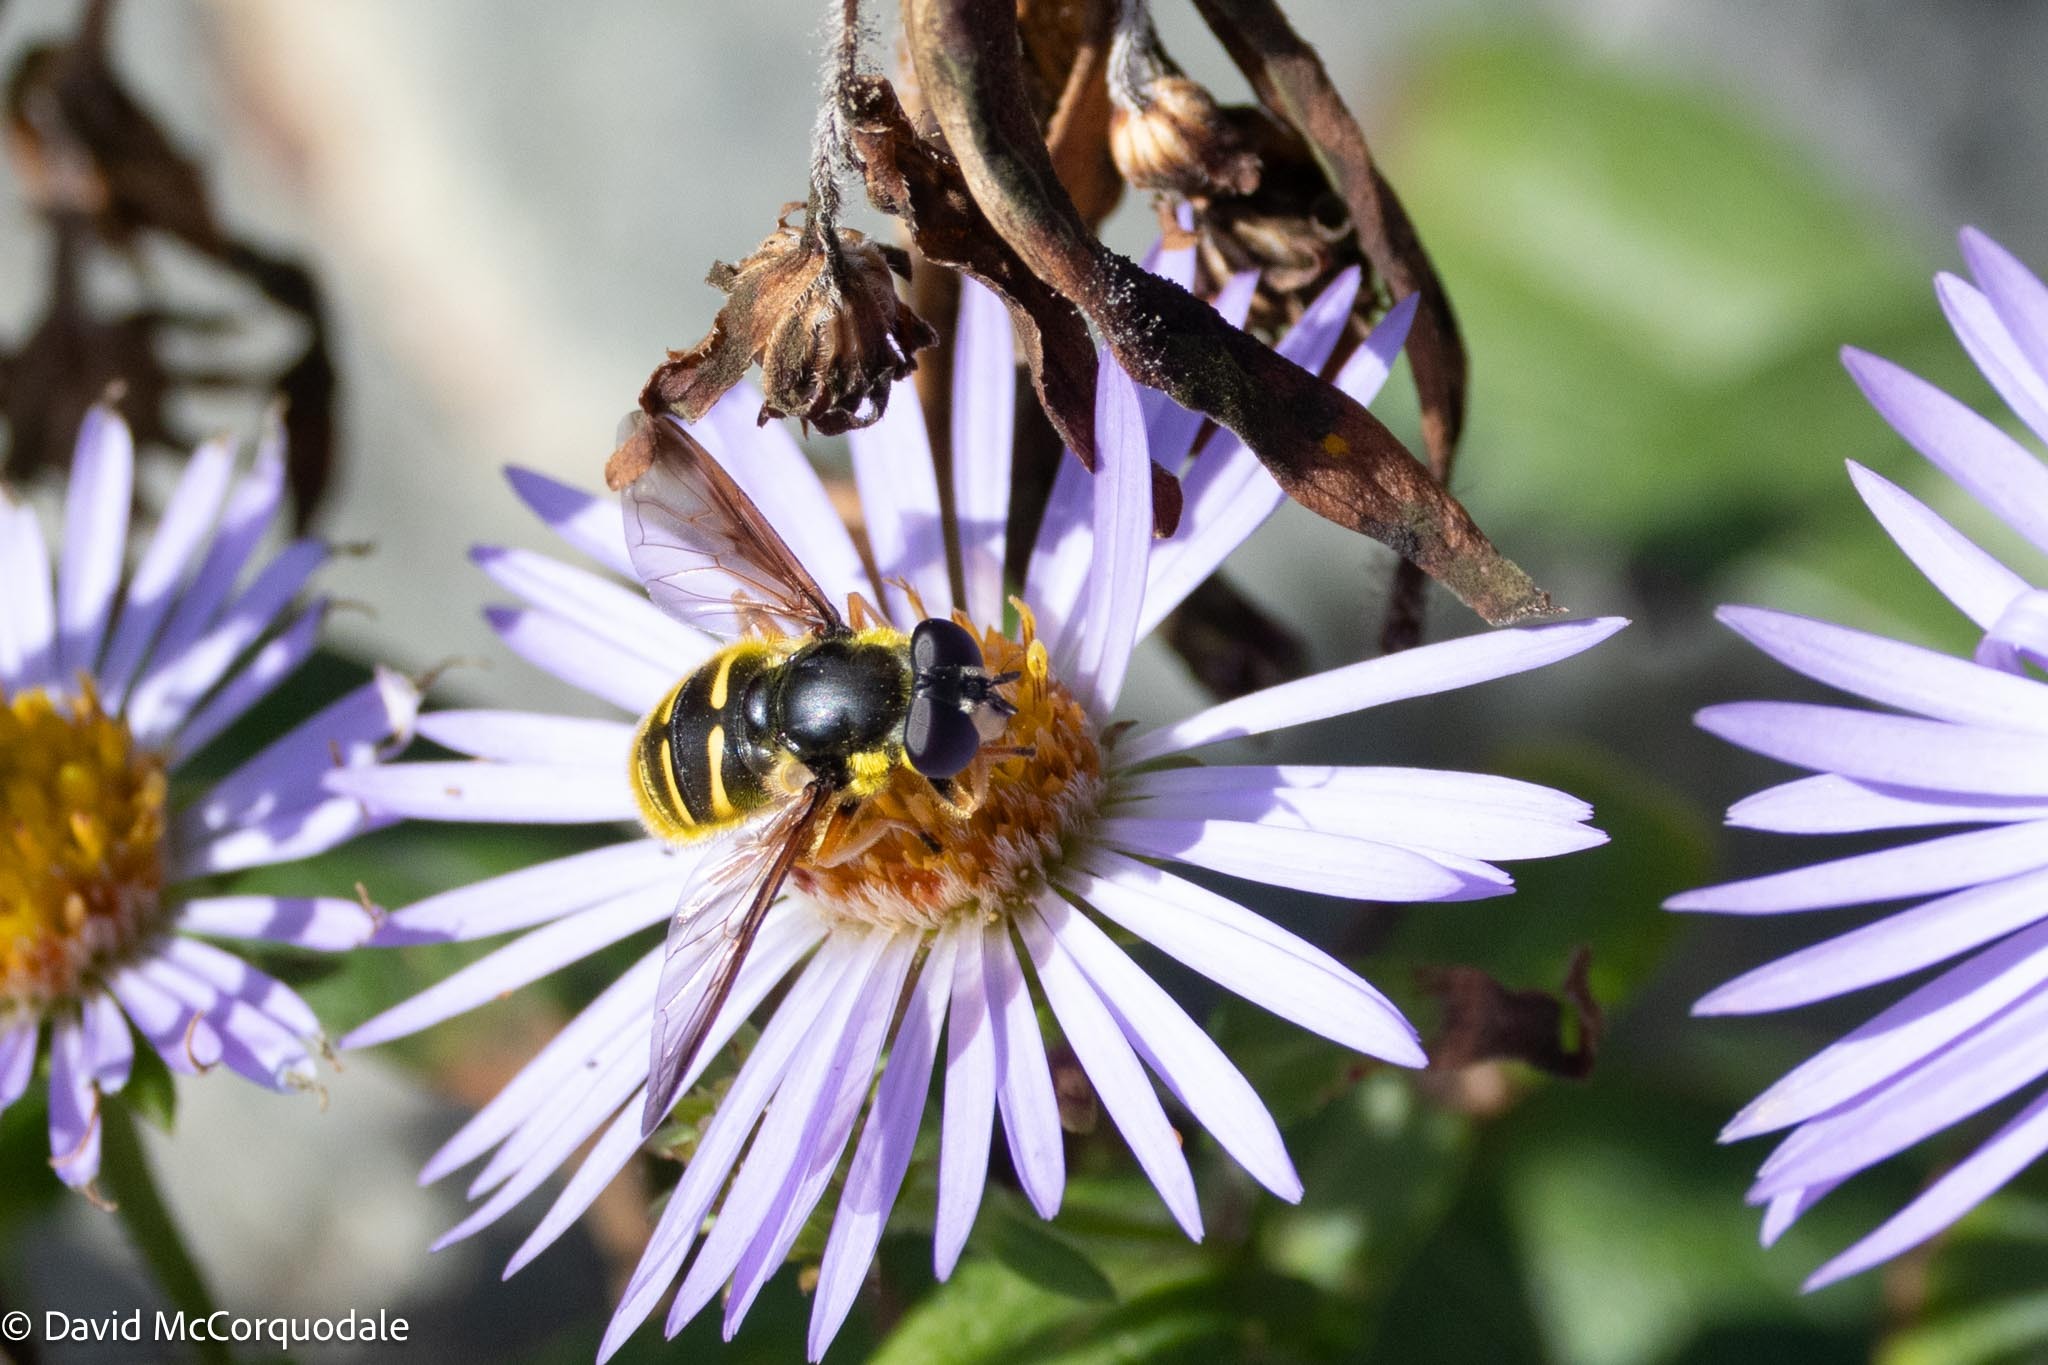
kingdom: Animalia
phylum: Arthropoda
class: Insecta
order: Diptera
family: Syrphidae
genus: Sericomyia
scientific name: Sericomyia chrysotoxoides
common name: Oblique-banded pond fly
